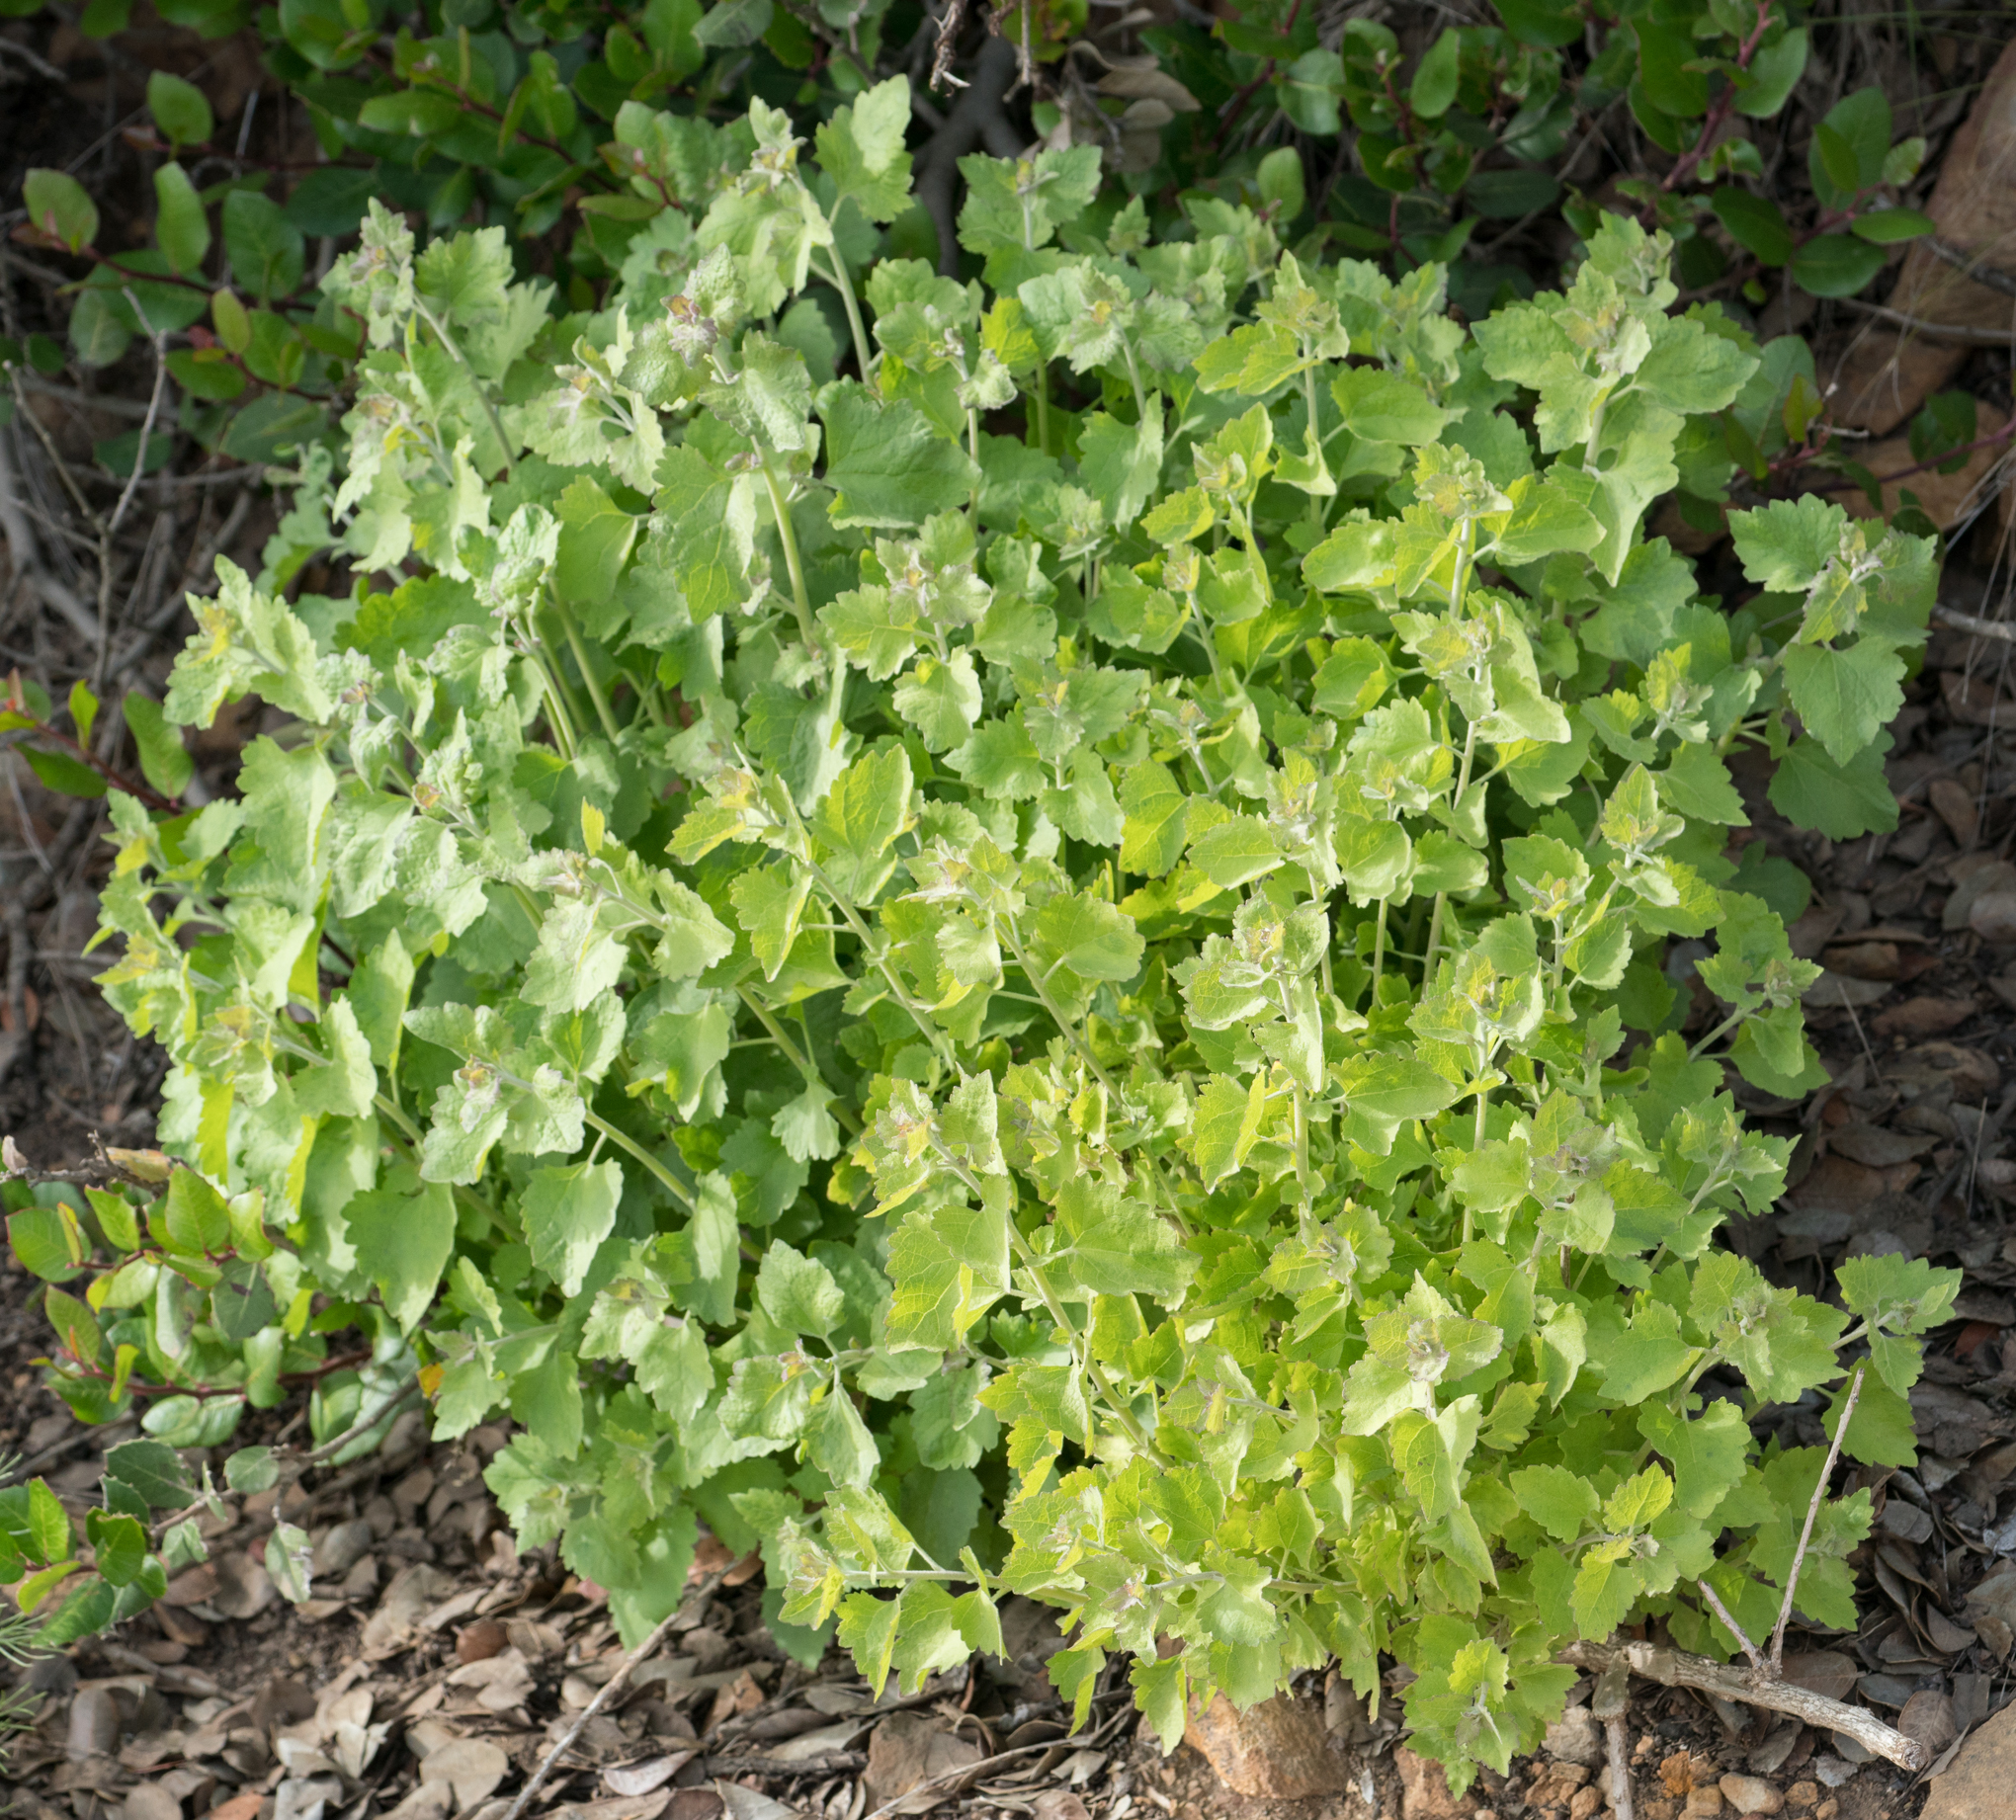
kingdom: Plantae
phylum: Tracheophyta
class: Magnoliopsida
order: Asterales
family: Asteraceae
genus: Brickellia
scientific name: Brickellia californica
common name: California brickellbush
